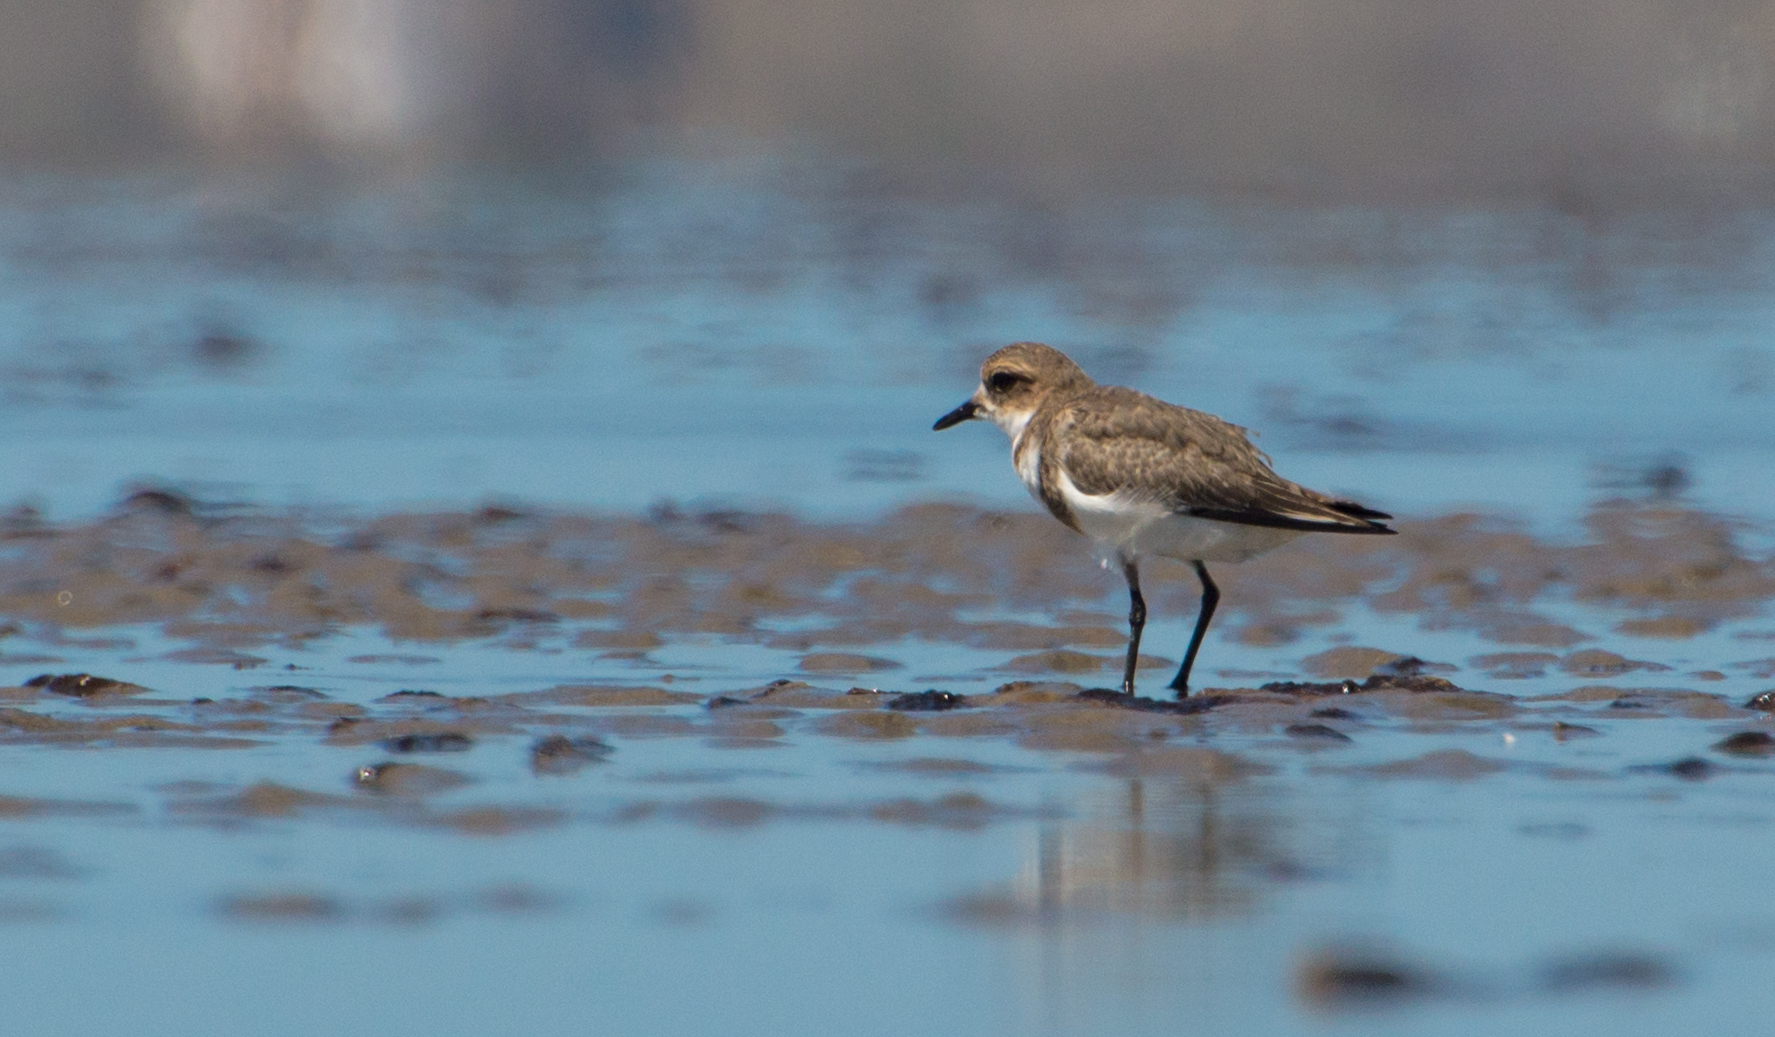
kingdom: Animalia
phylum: Chordata
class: Aves
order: Charadriiformes
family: Charadriidae
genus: Anarhynchus
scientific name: Anarhynchus
